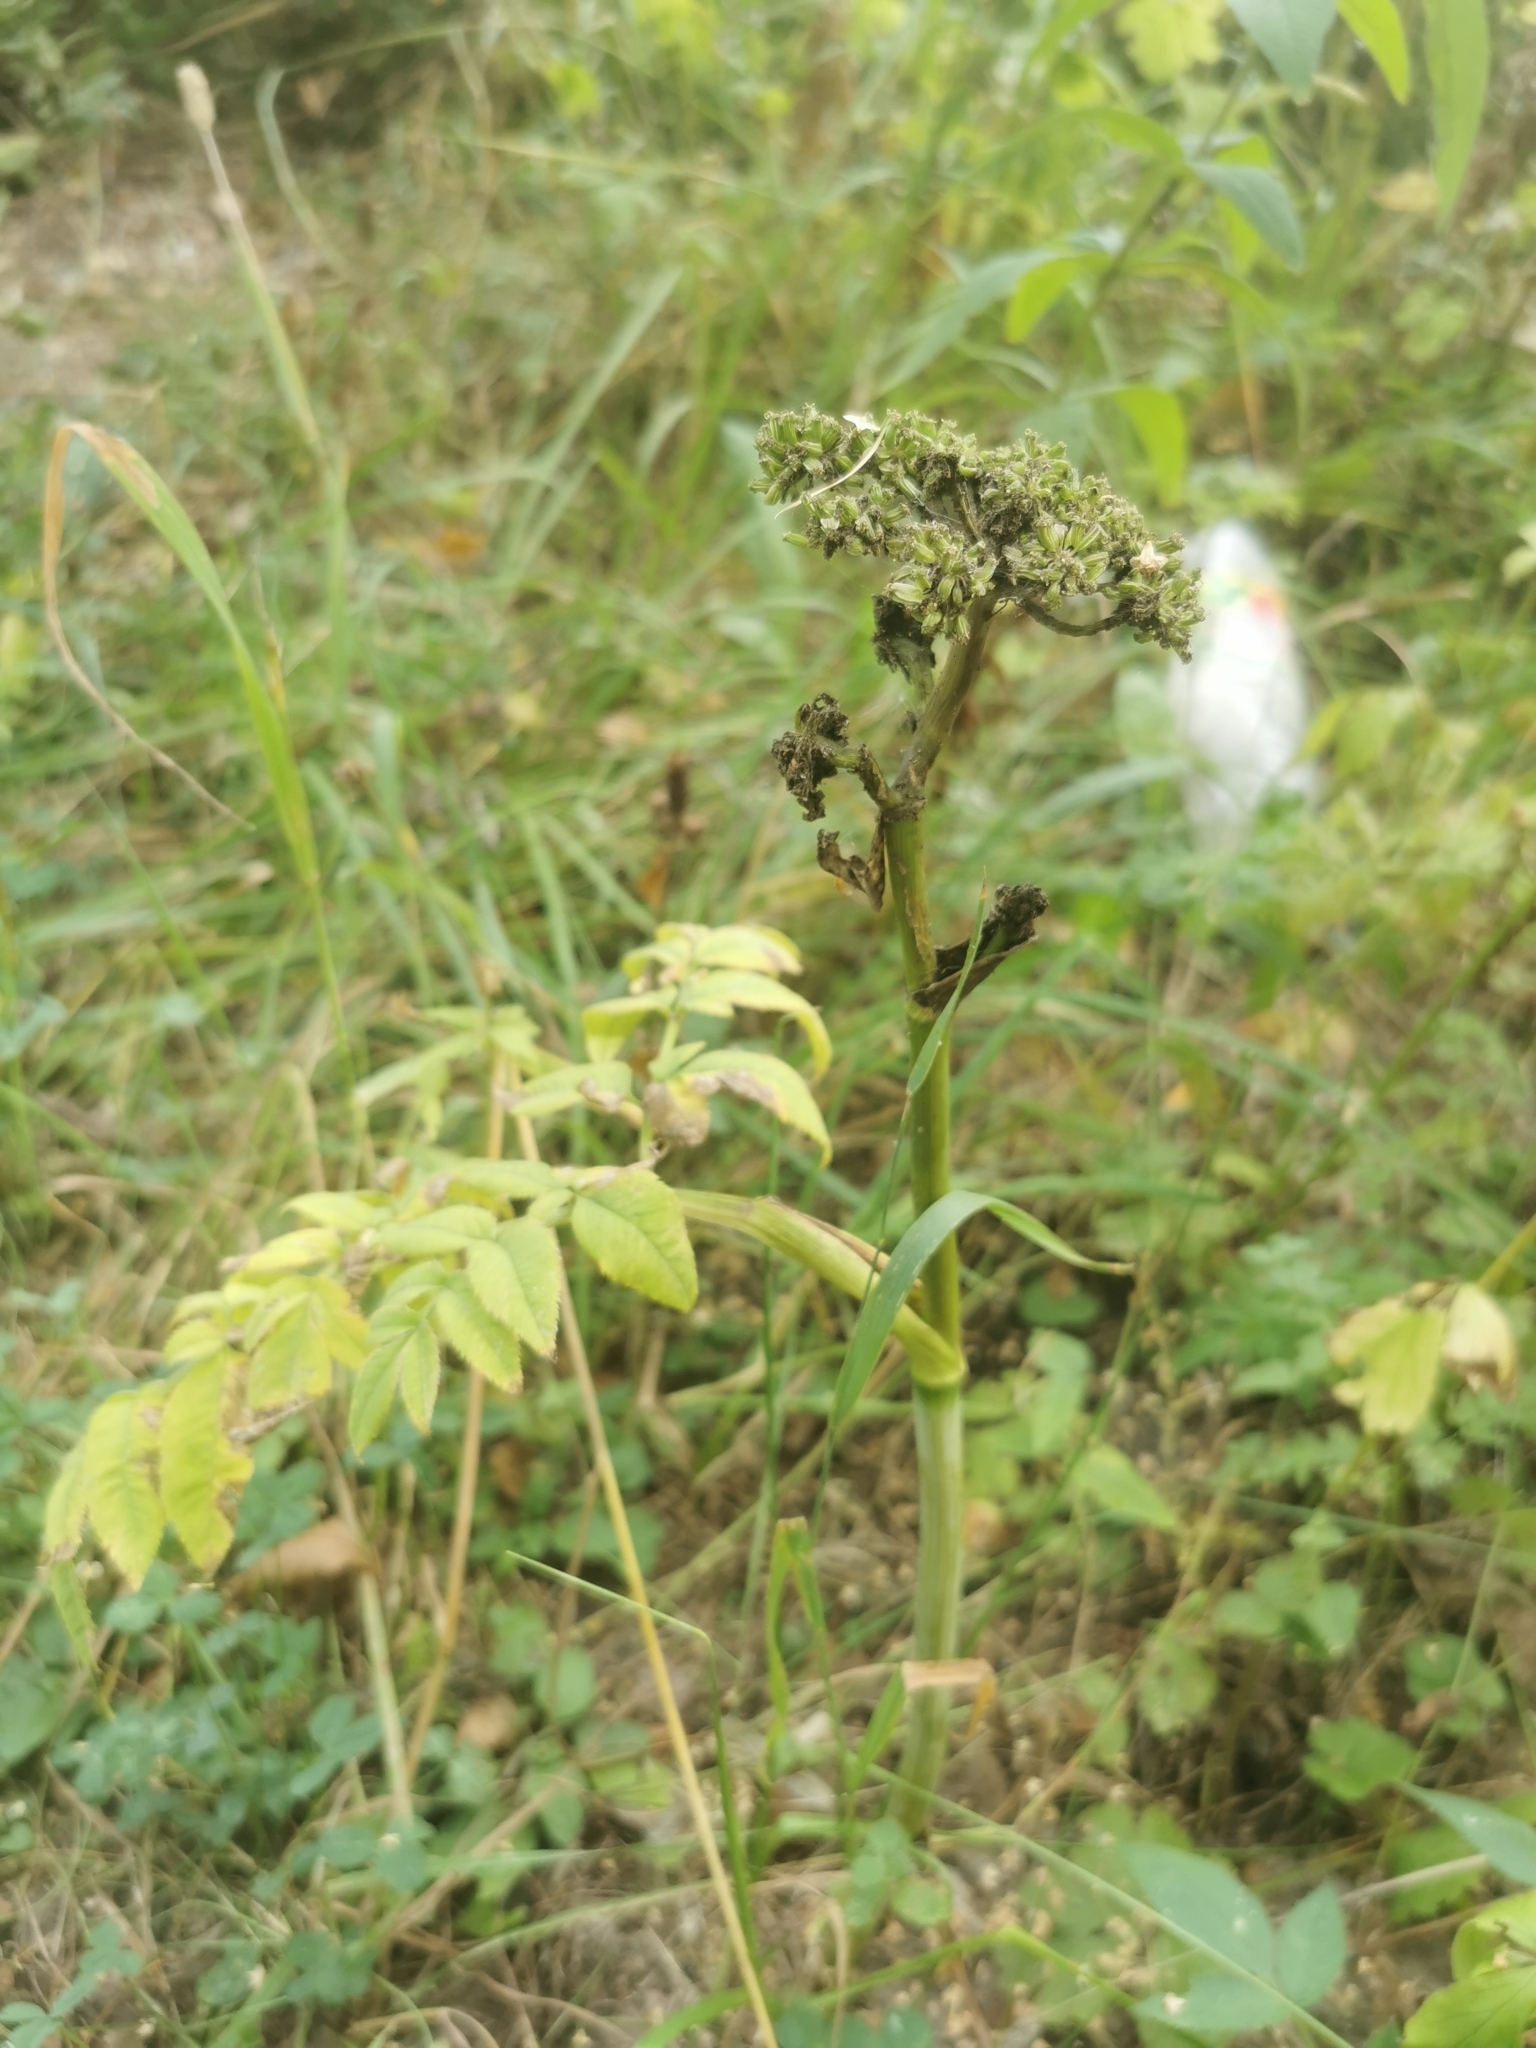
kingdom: Plantae
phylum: Tracheophyta
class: Magnoliopsida
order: Apiales
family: Apiaceae
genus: Angelica
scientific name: Angelica sylvestris
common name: Wild angelica
